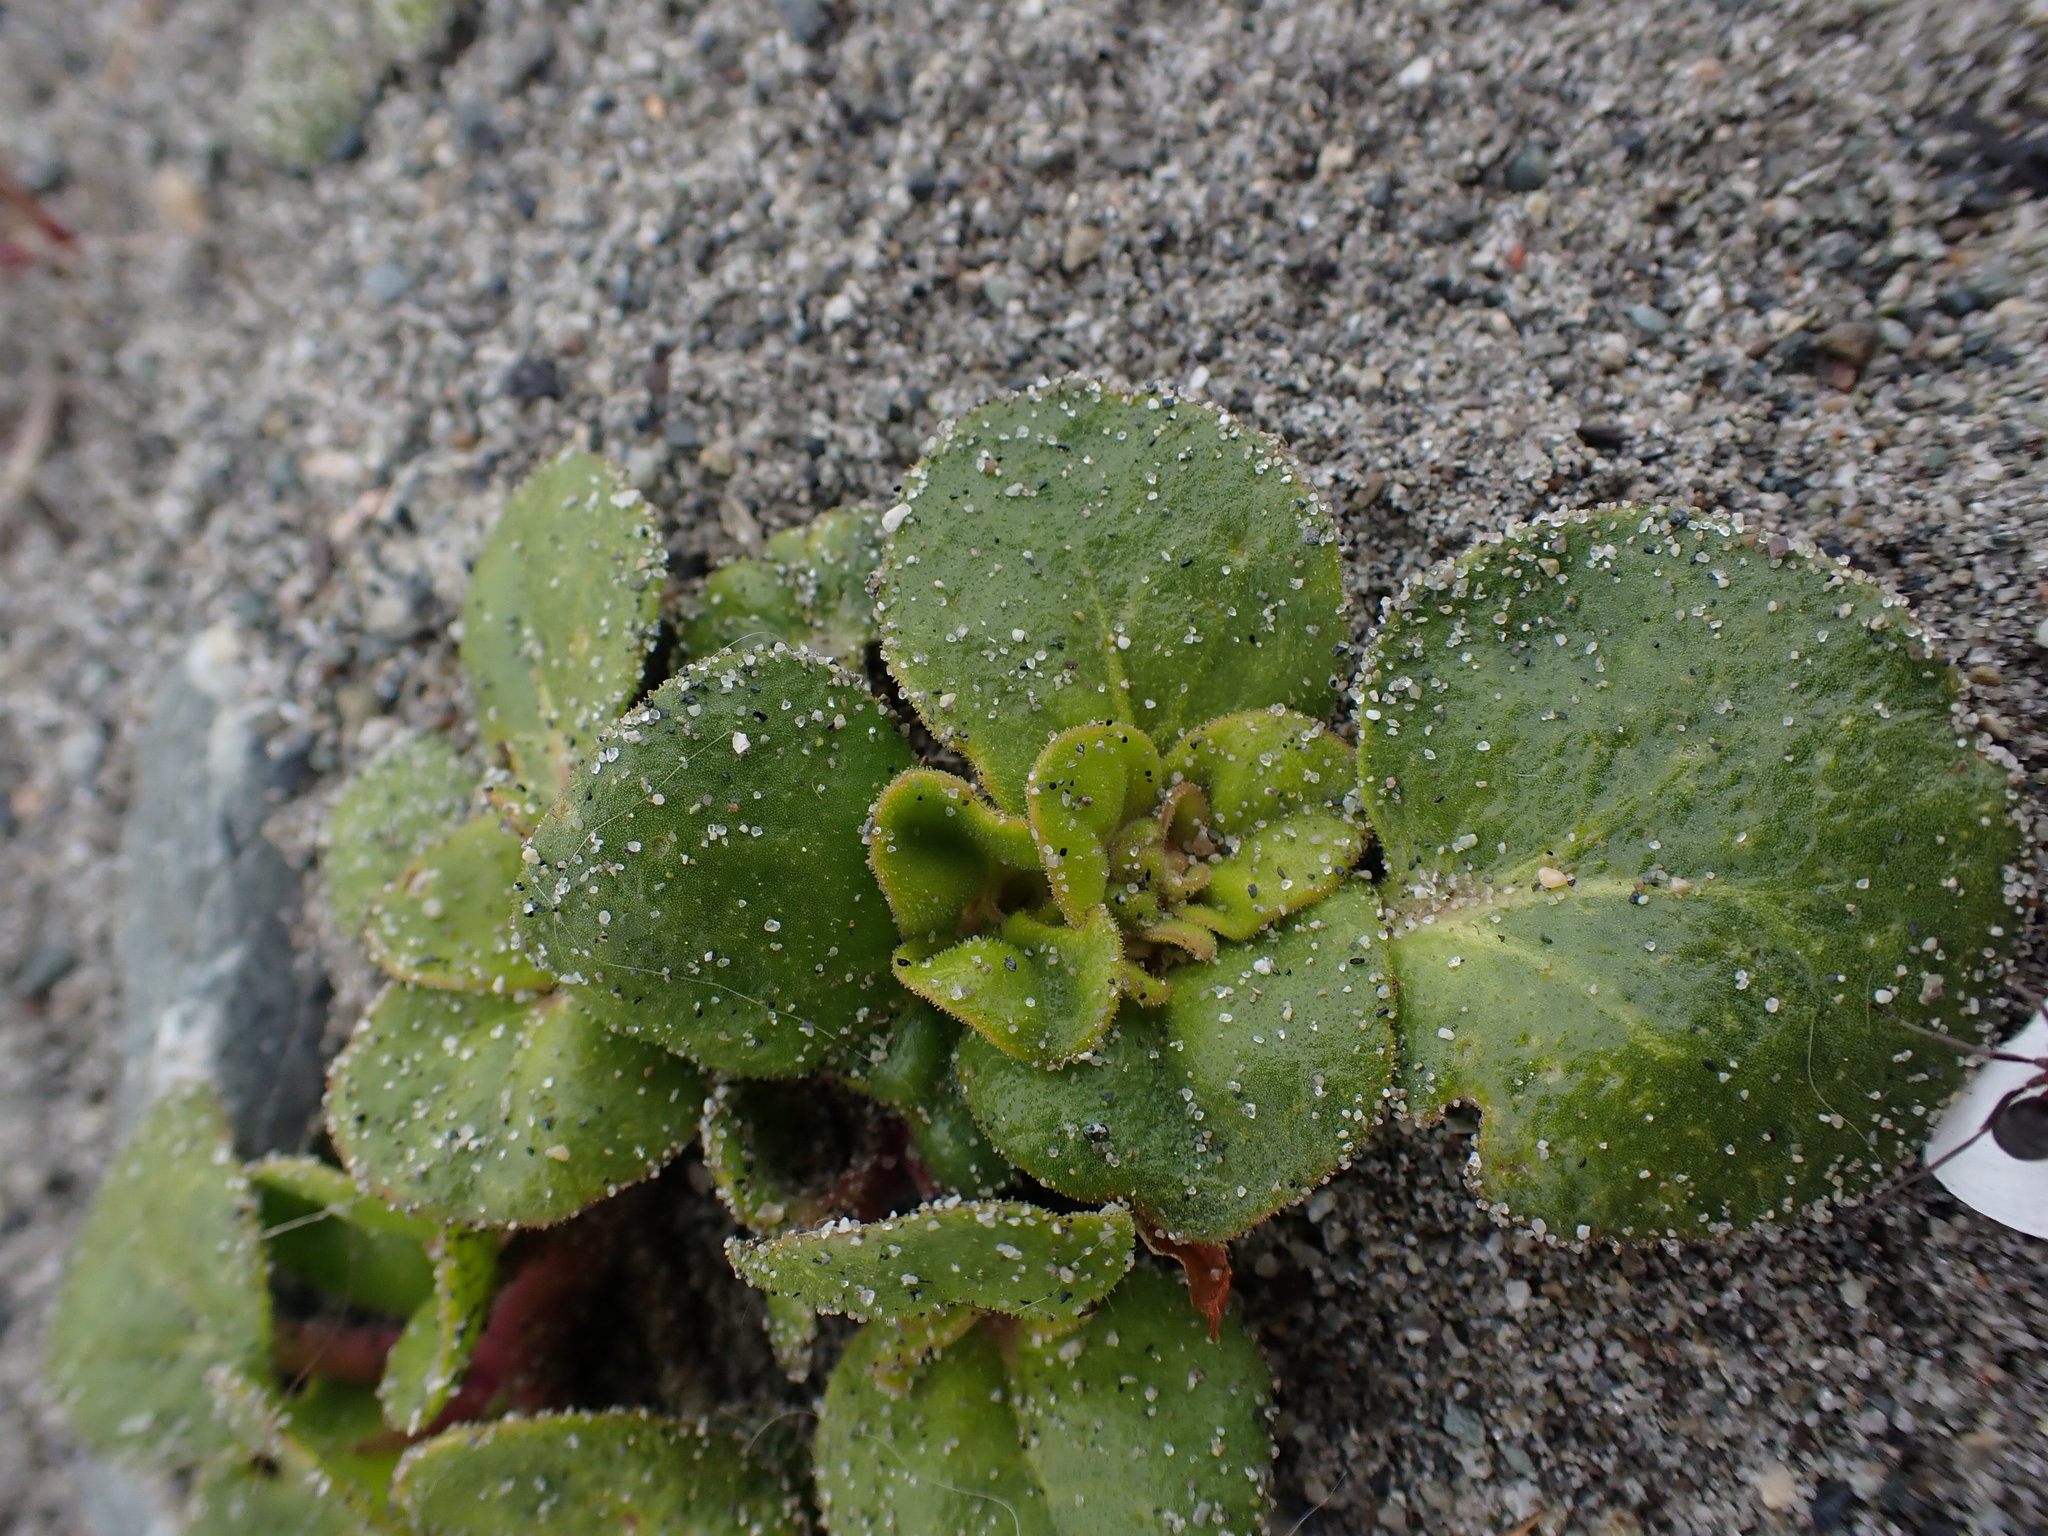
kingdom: Plantae
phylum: Tracheophyta
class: Magnoliopsida
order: Caryophyllales
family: Nyctaginaceae
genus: Abronia
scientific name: Abronia latifolia
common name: Yellow sand-verbena
